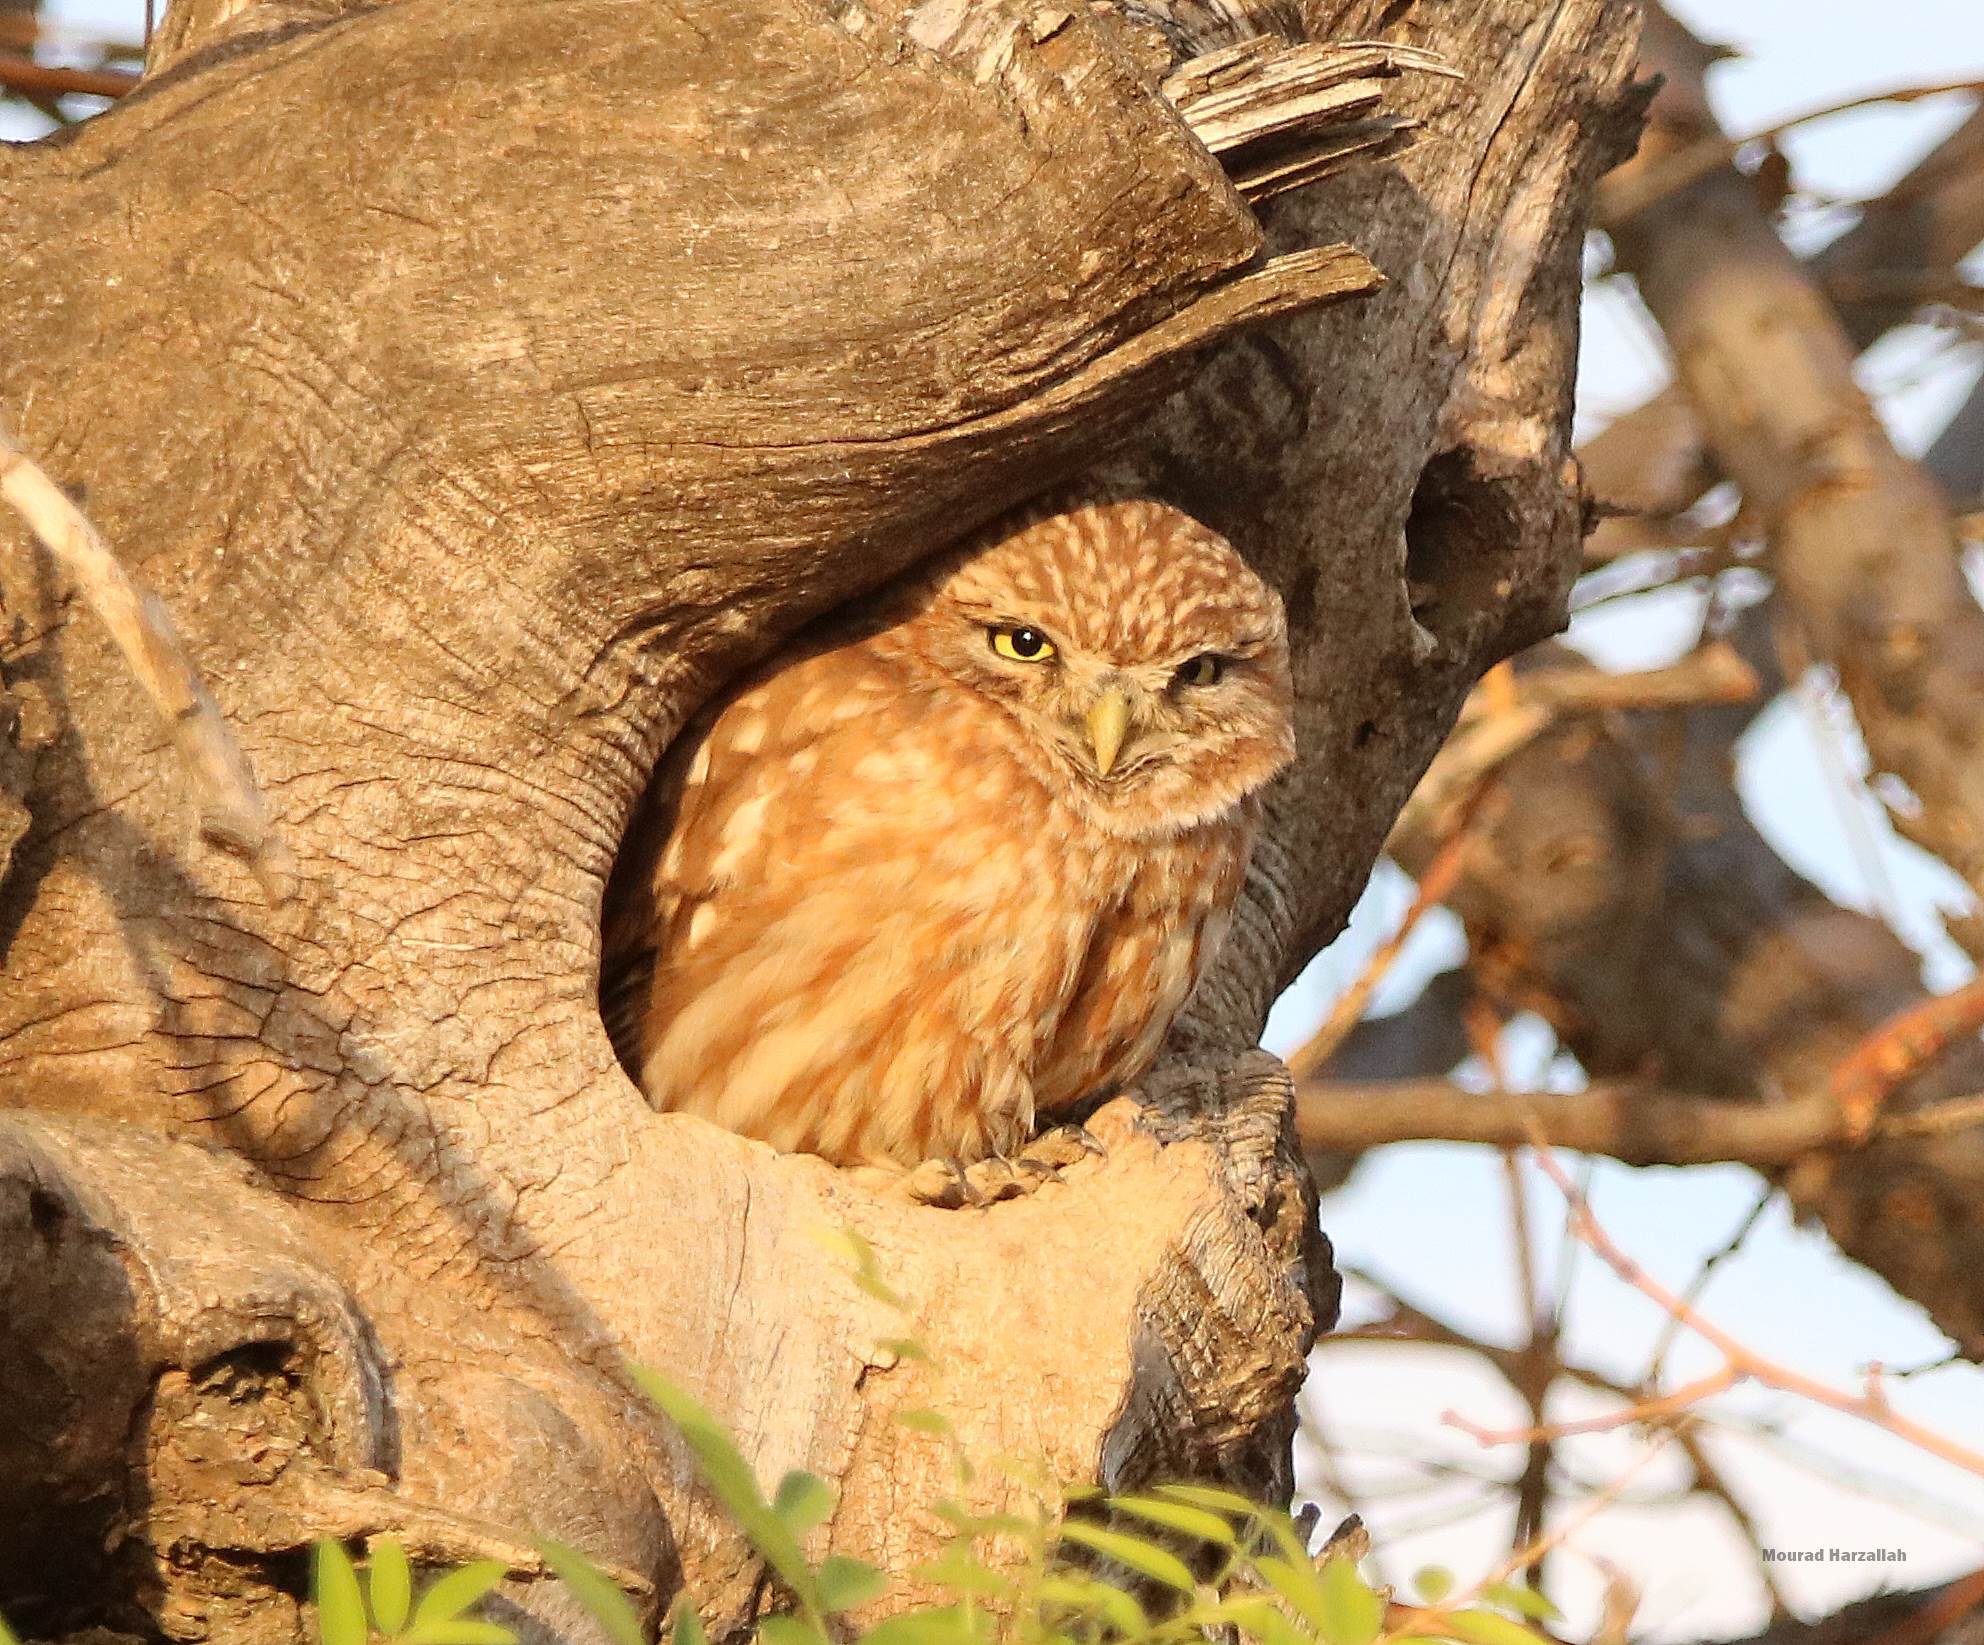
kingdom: Animalia
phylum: Chordata
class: Aves
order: Strigiformes
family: Strigidae
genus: Athene
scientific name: Athene noctua
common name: Little owl
